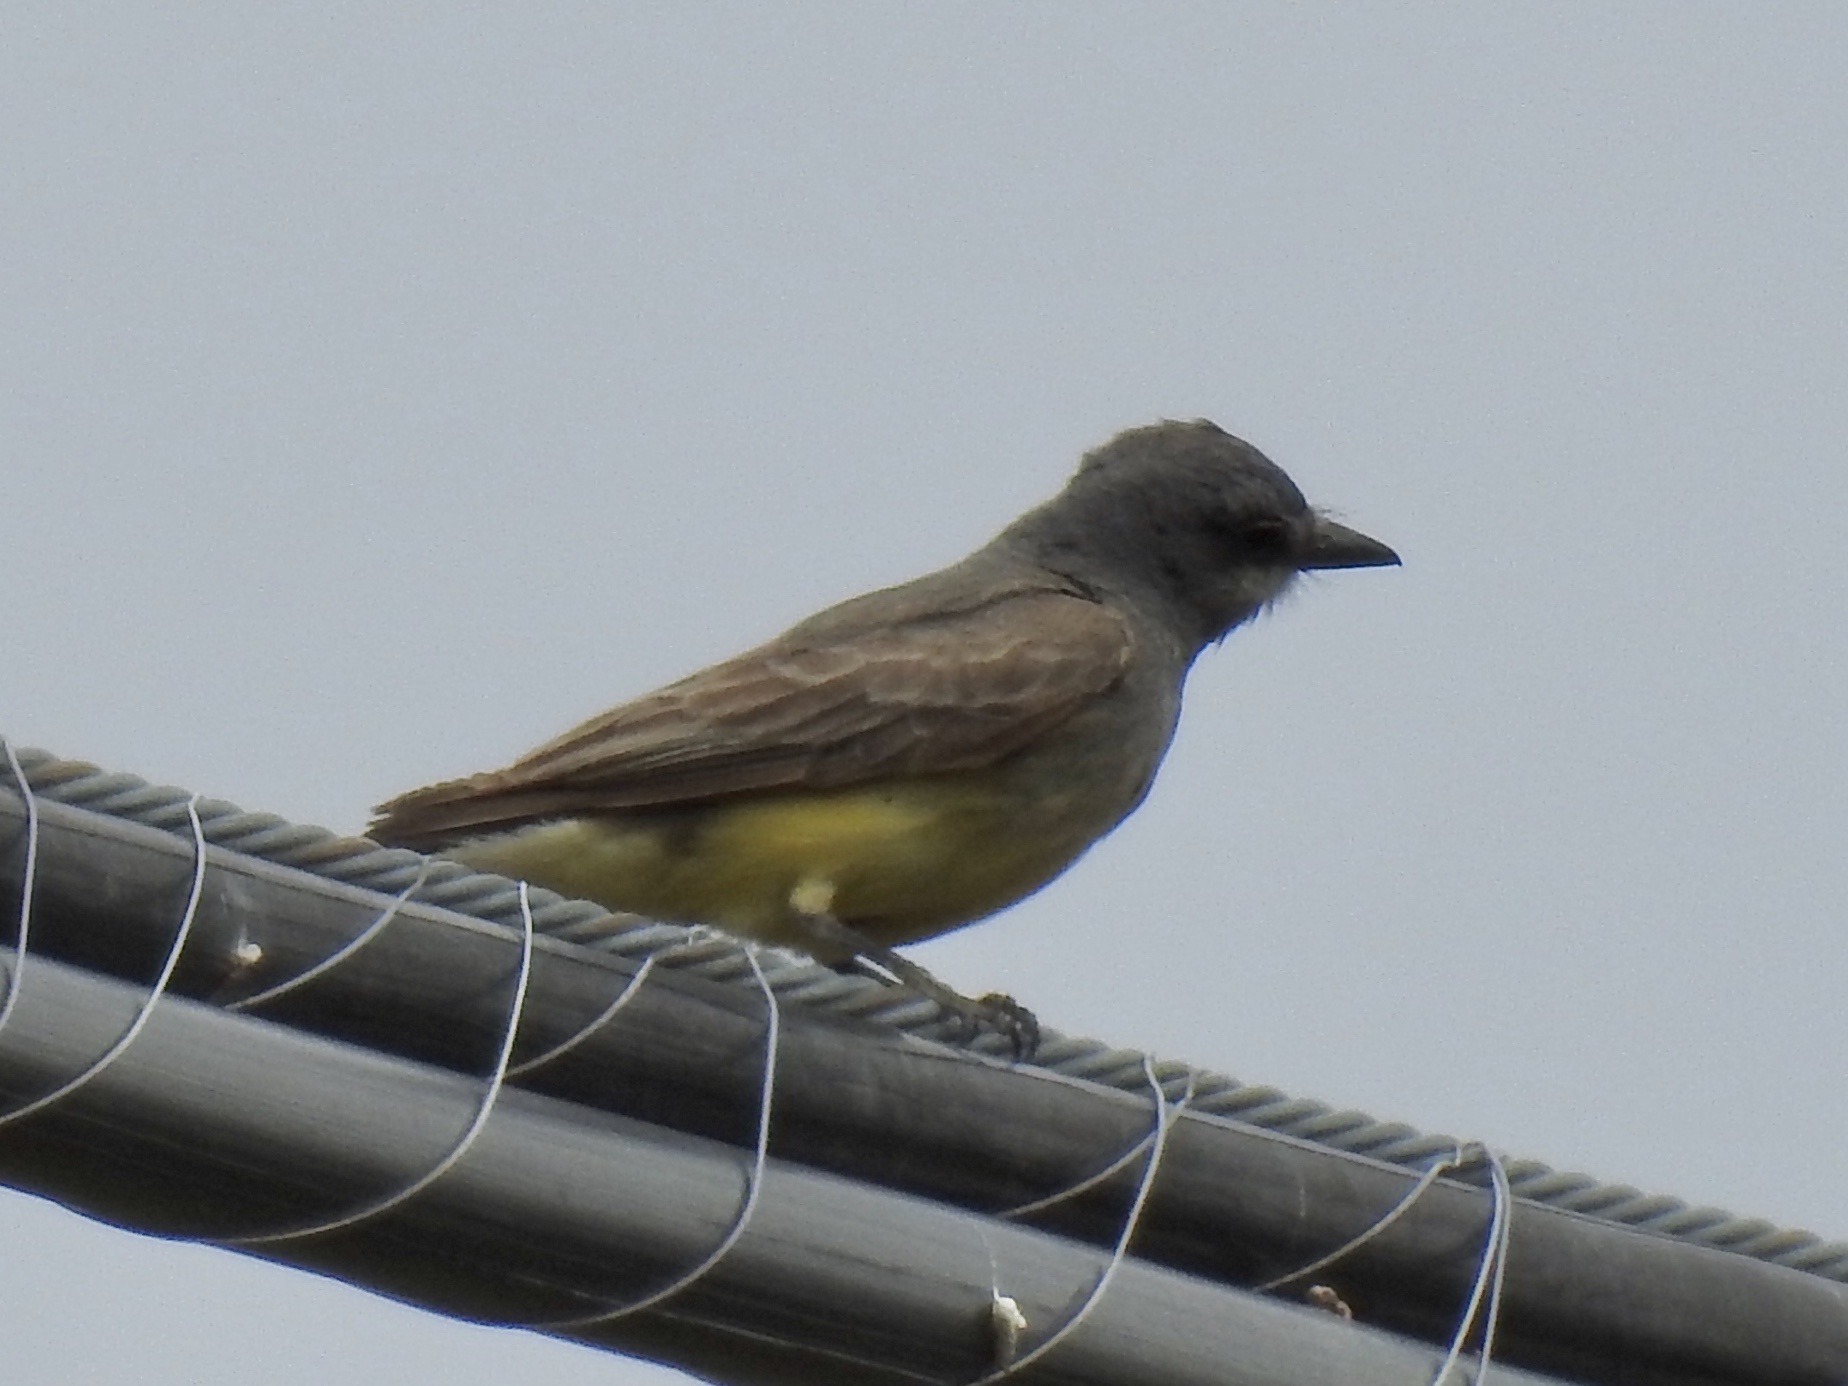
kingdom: Animalia
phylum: Chordata
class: Aves
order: Passeriformes
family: Tyrannidae
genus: Tyrannus
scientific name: Tyrannus vociferans
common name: Cassin's kingbird
